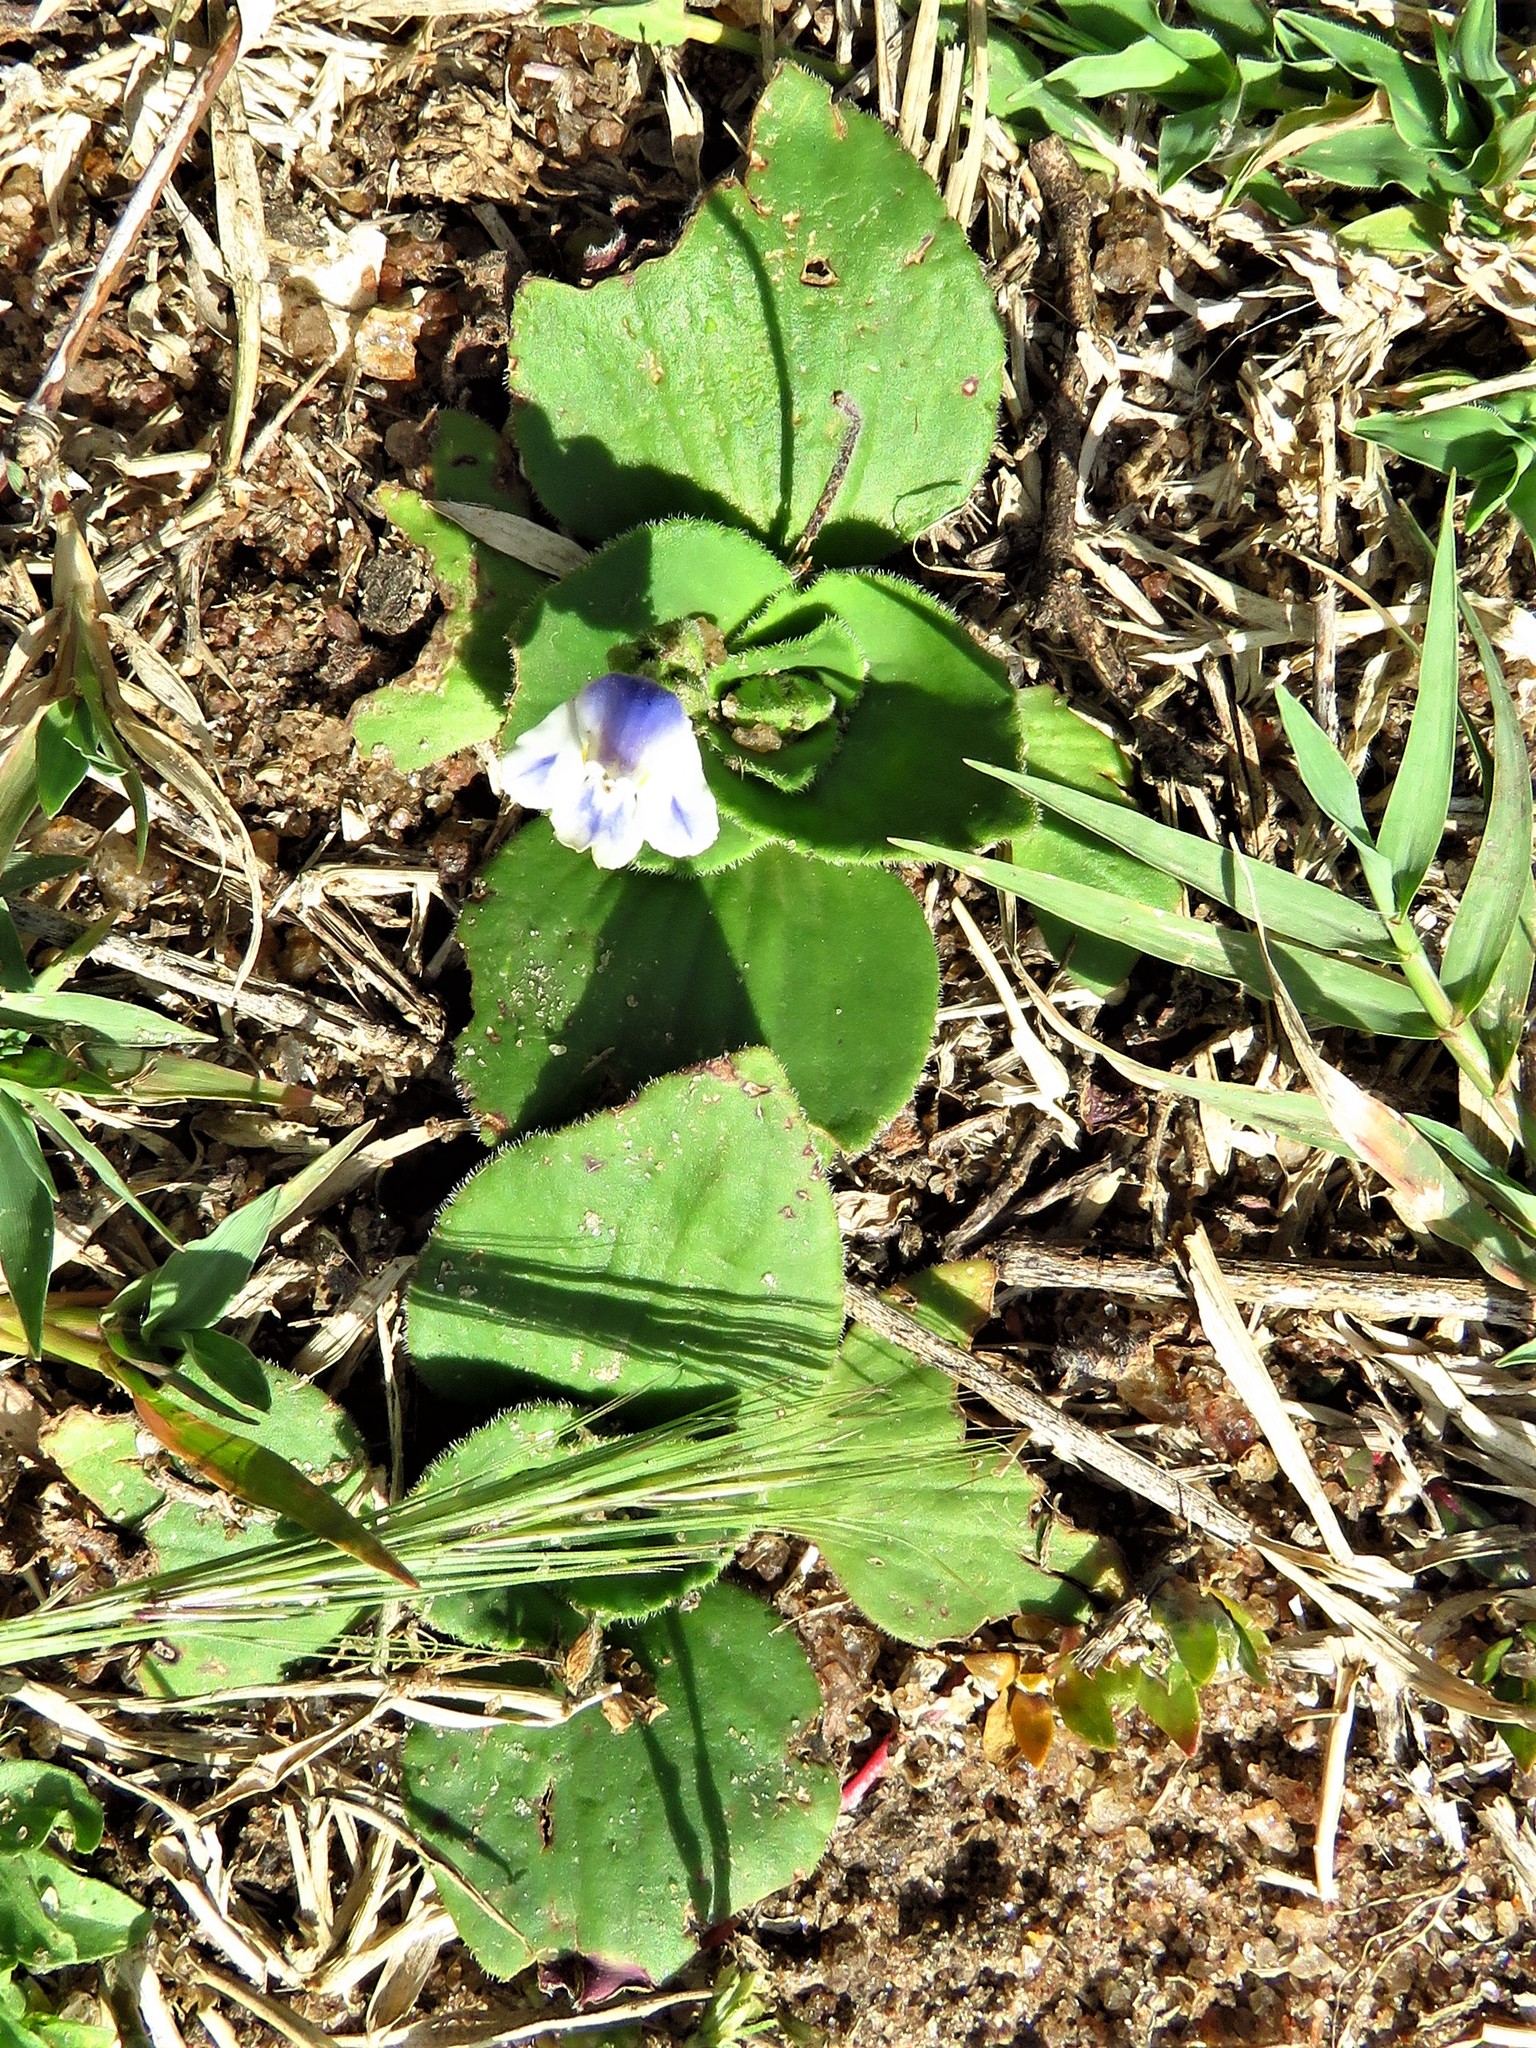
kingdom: Plantae
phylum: Tracheophyta
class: Magnoliopsida
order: Lamiales
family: Linderniaceae
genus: Craterostigma
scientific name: Craterostigma plantagineum
